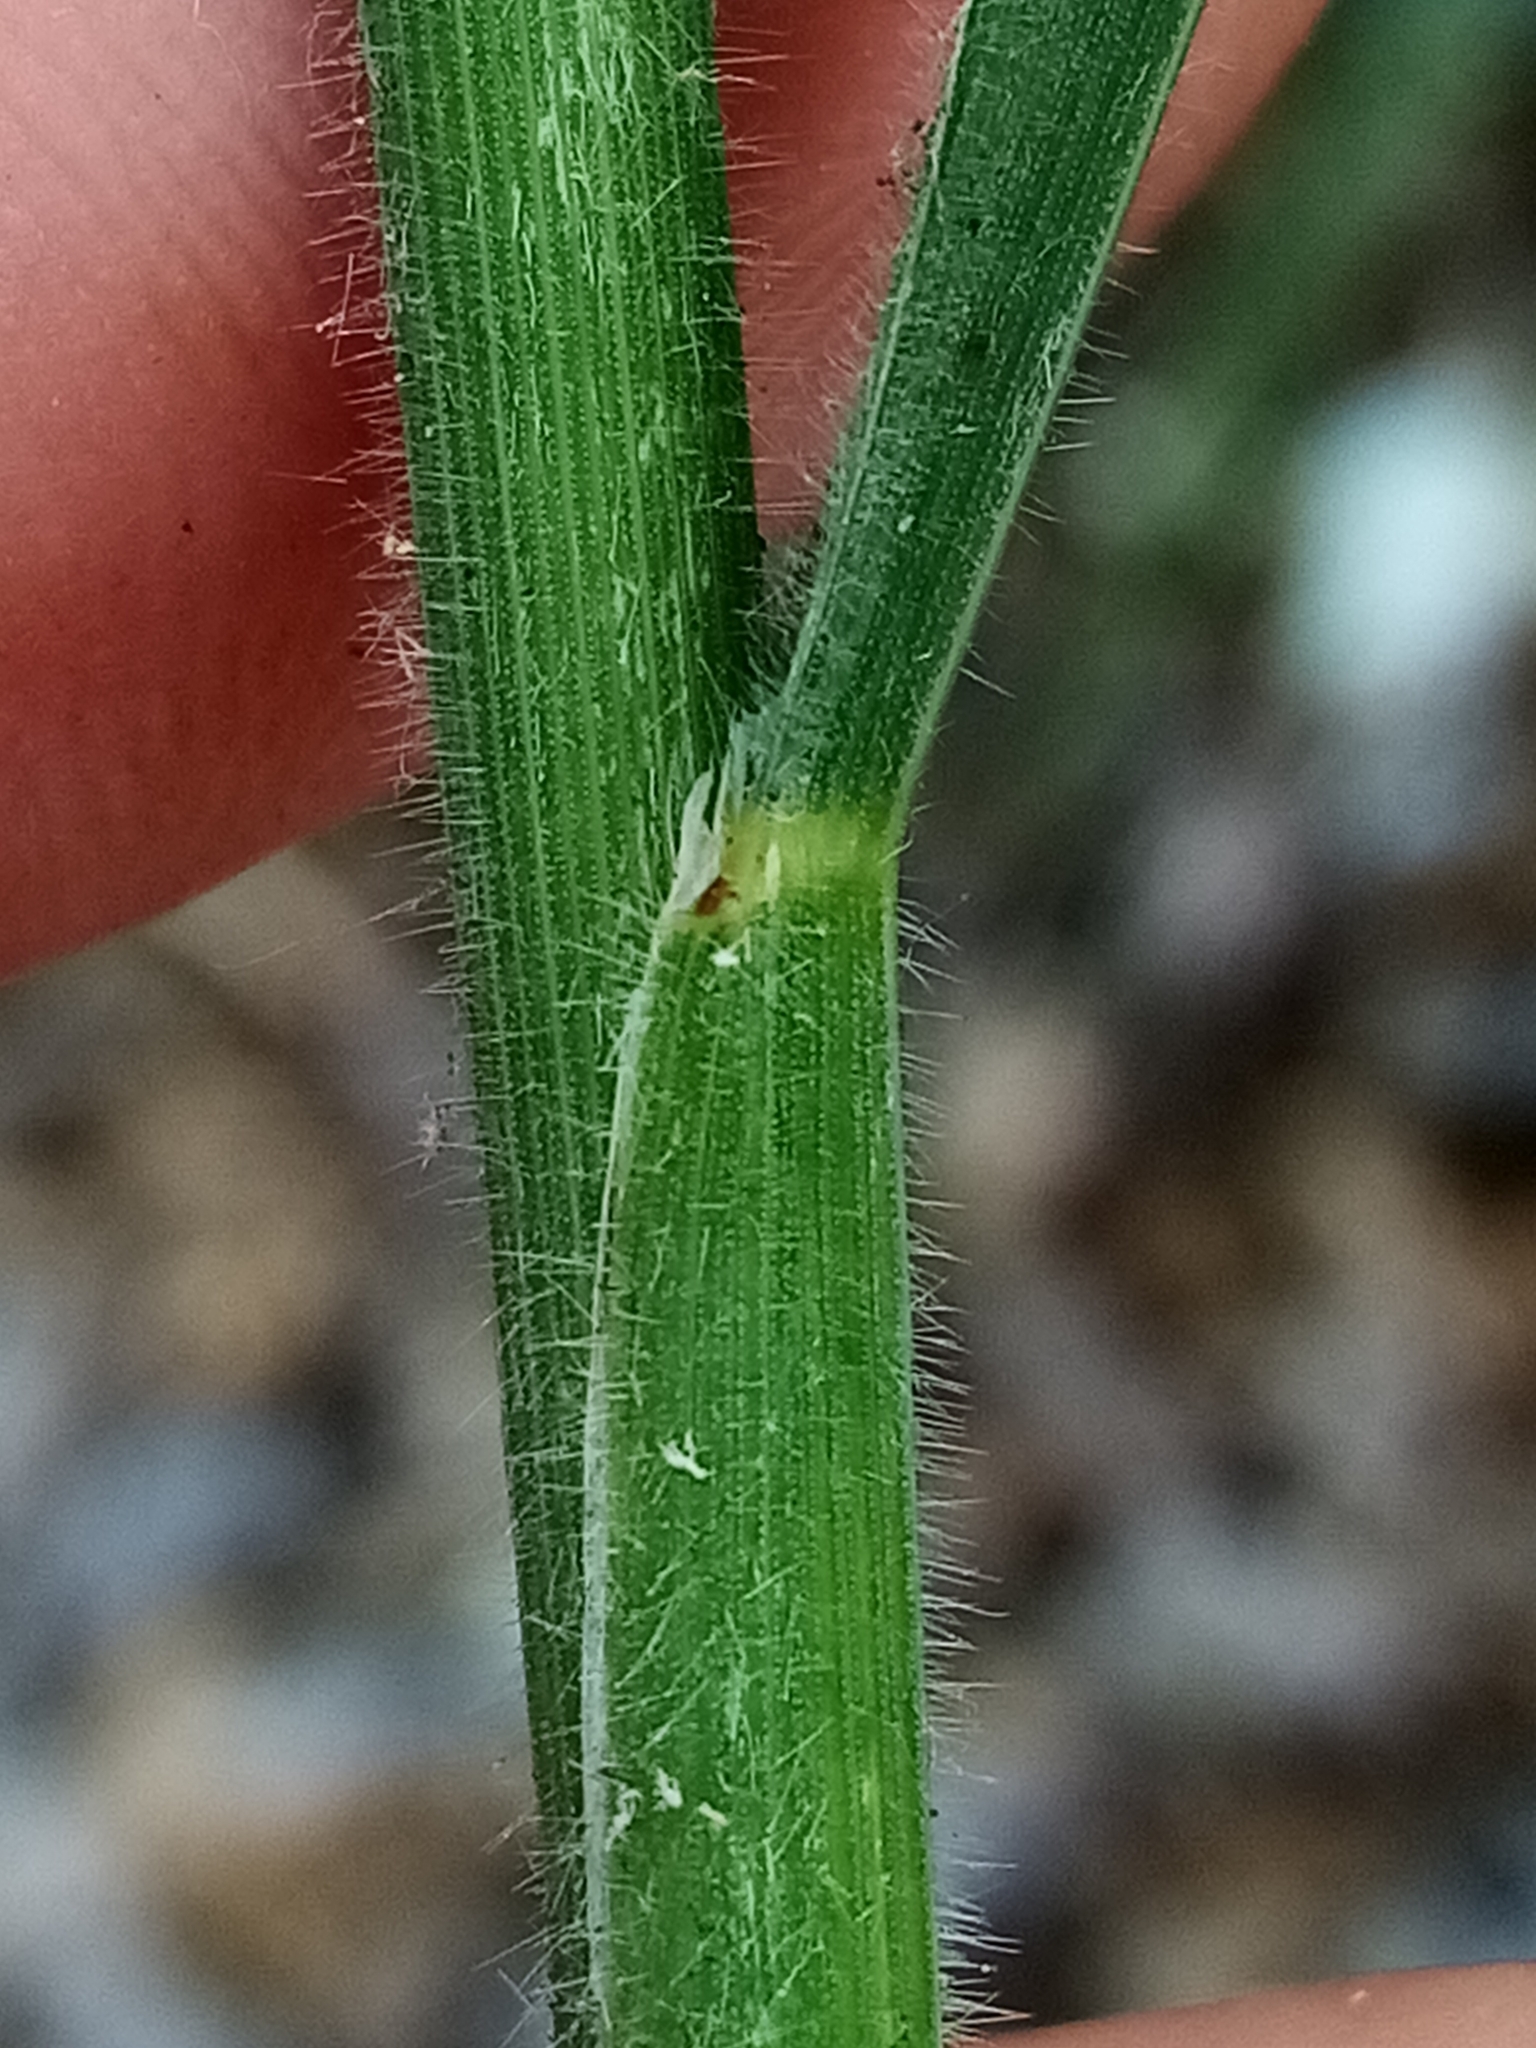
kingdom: Plantae
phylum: Tracheophyta
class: Liliopsida
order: Poales
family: Poaceae
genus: Bromus
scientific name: Bromus cebadilla
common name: Southern brome
